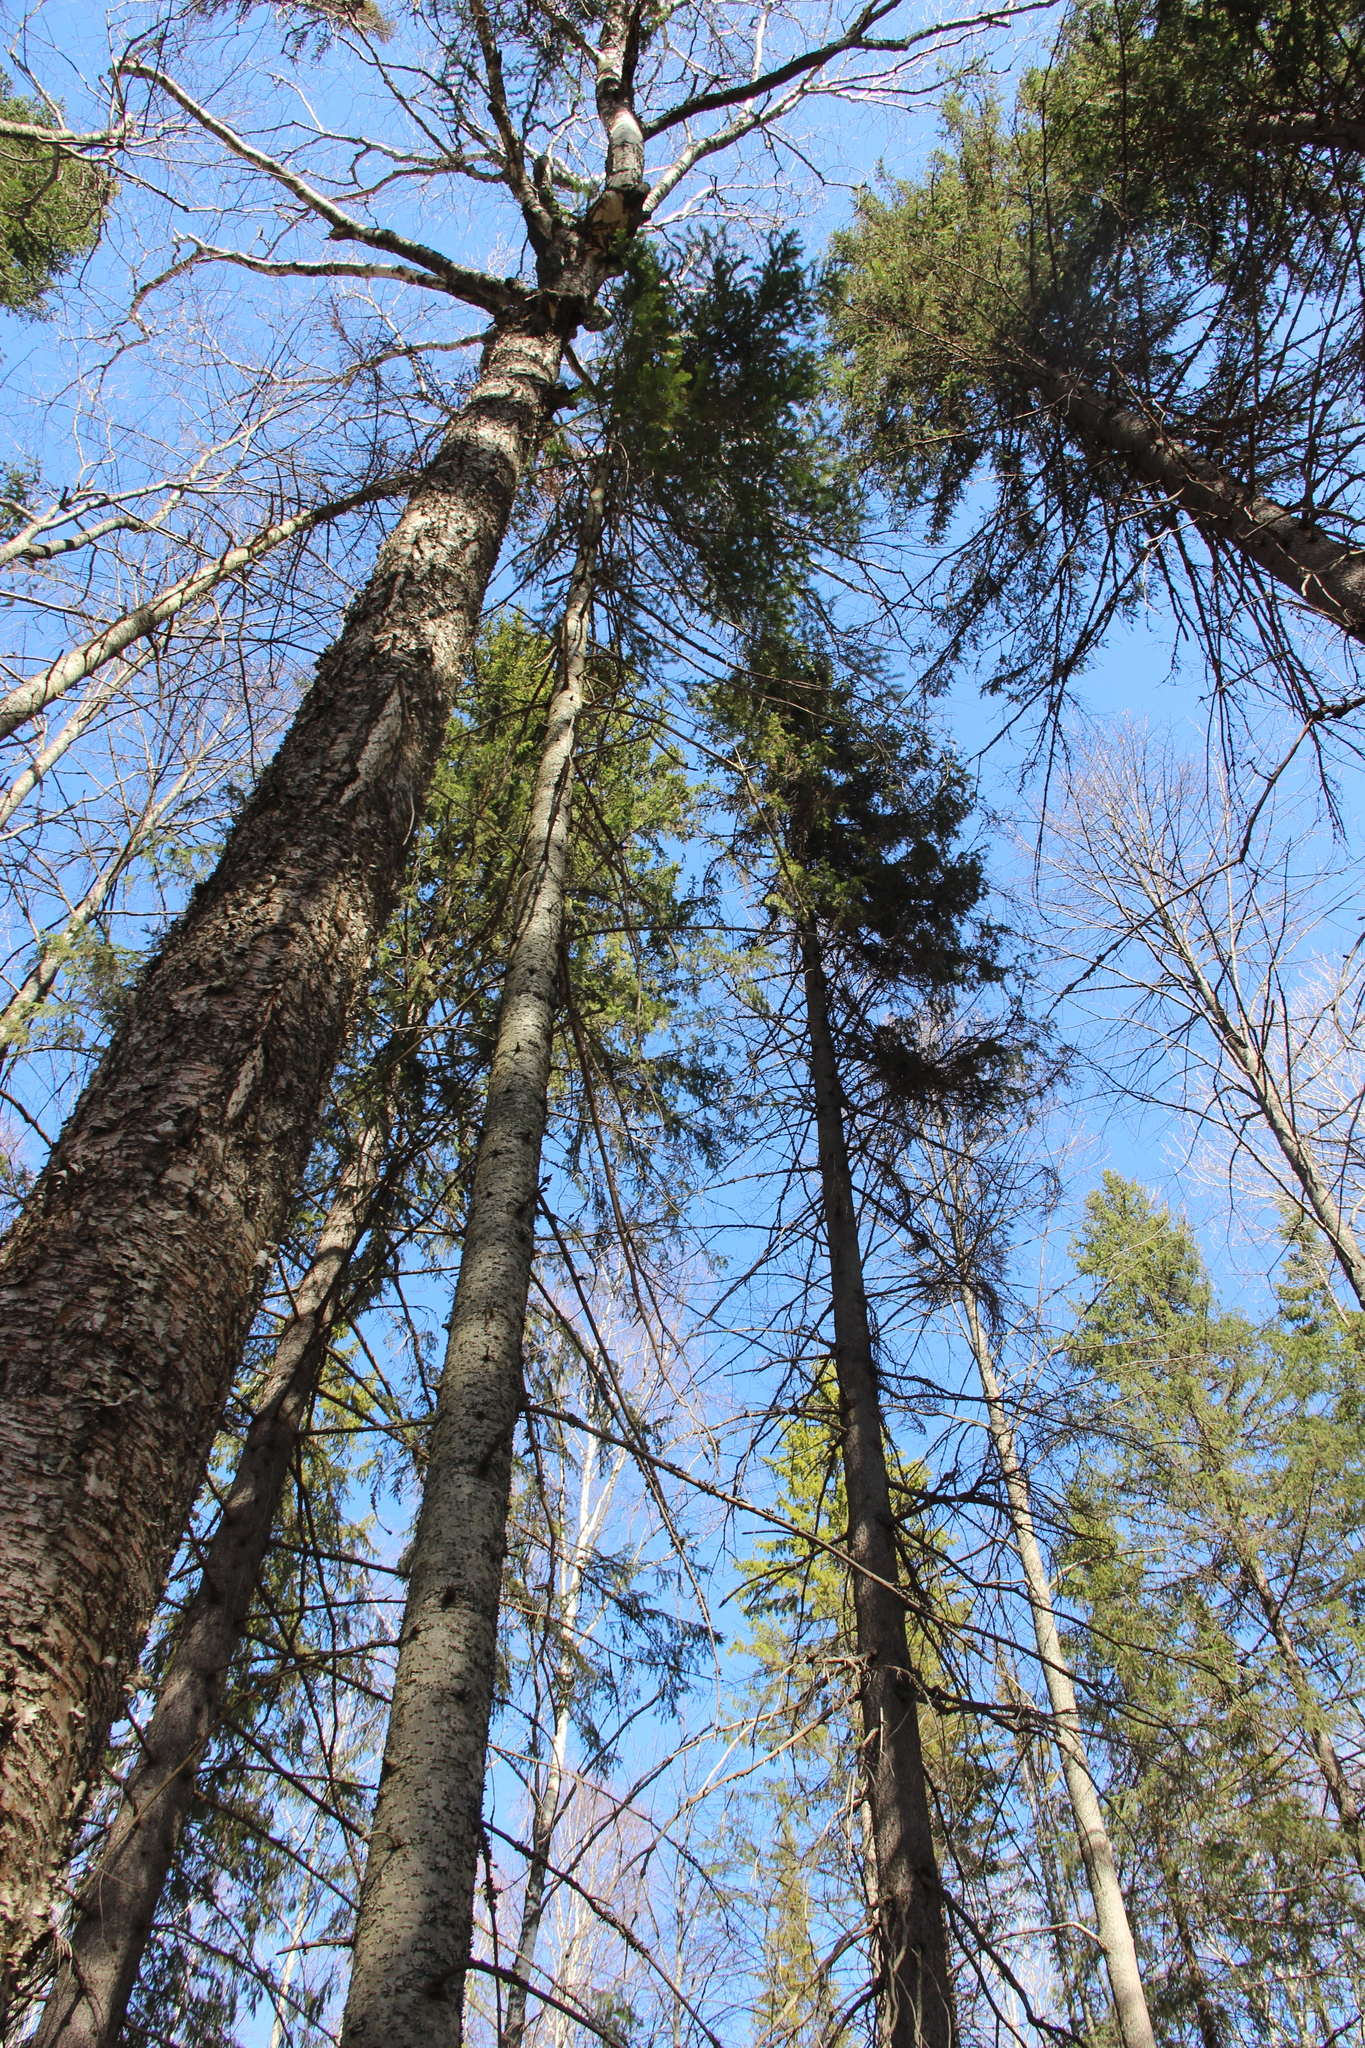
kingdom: Plantae
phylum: Tracheophyta
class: Pinopsida
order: Pinales
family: Pinaceae
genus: Abies
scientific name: Abies sibirica
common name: Siberian fir
